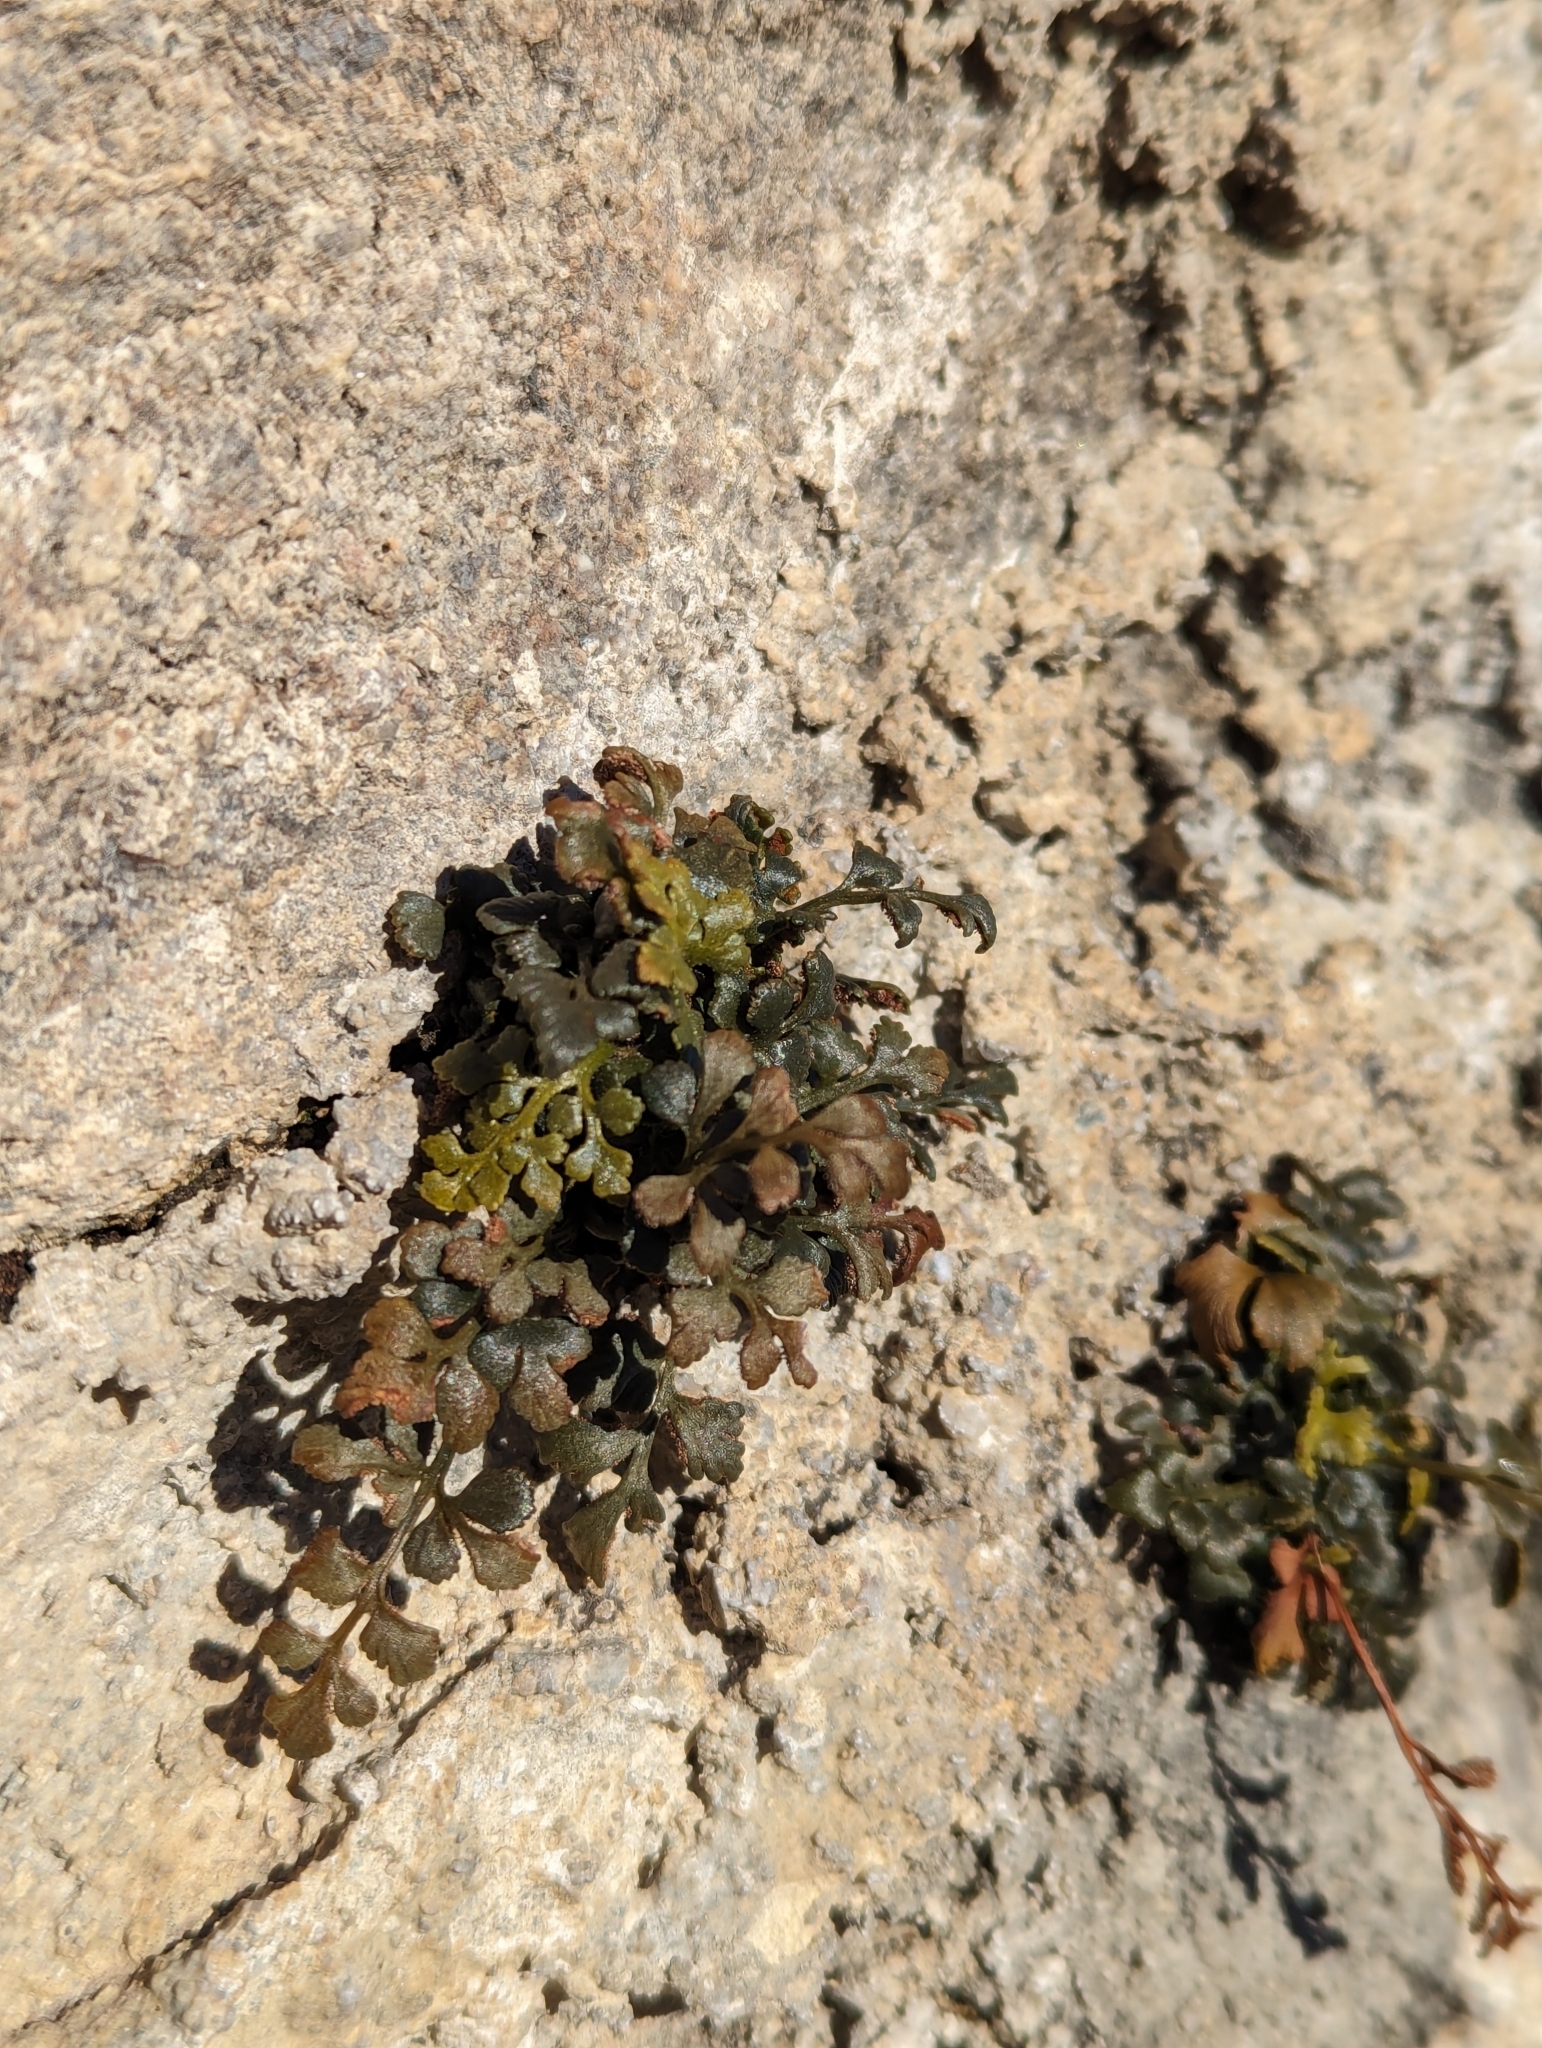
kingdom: Plantae
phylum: Tracheophyta
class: Polypodiopsida
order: Polypodiales
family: Aspleniaceae
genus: Asplenium
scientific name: Asplenium ruta-muraria
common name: Wall-rue
